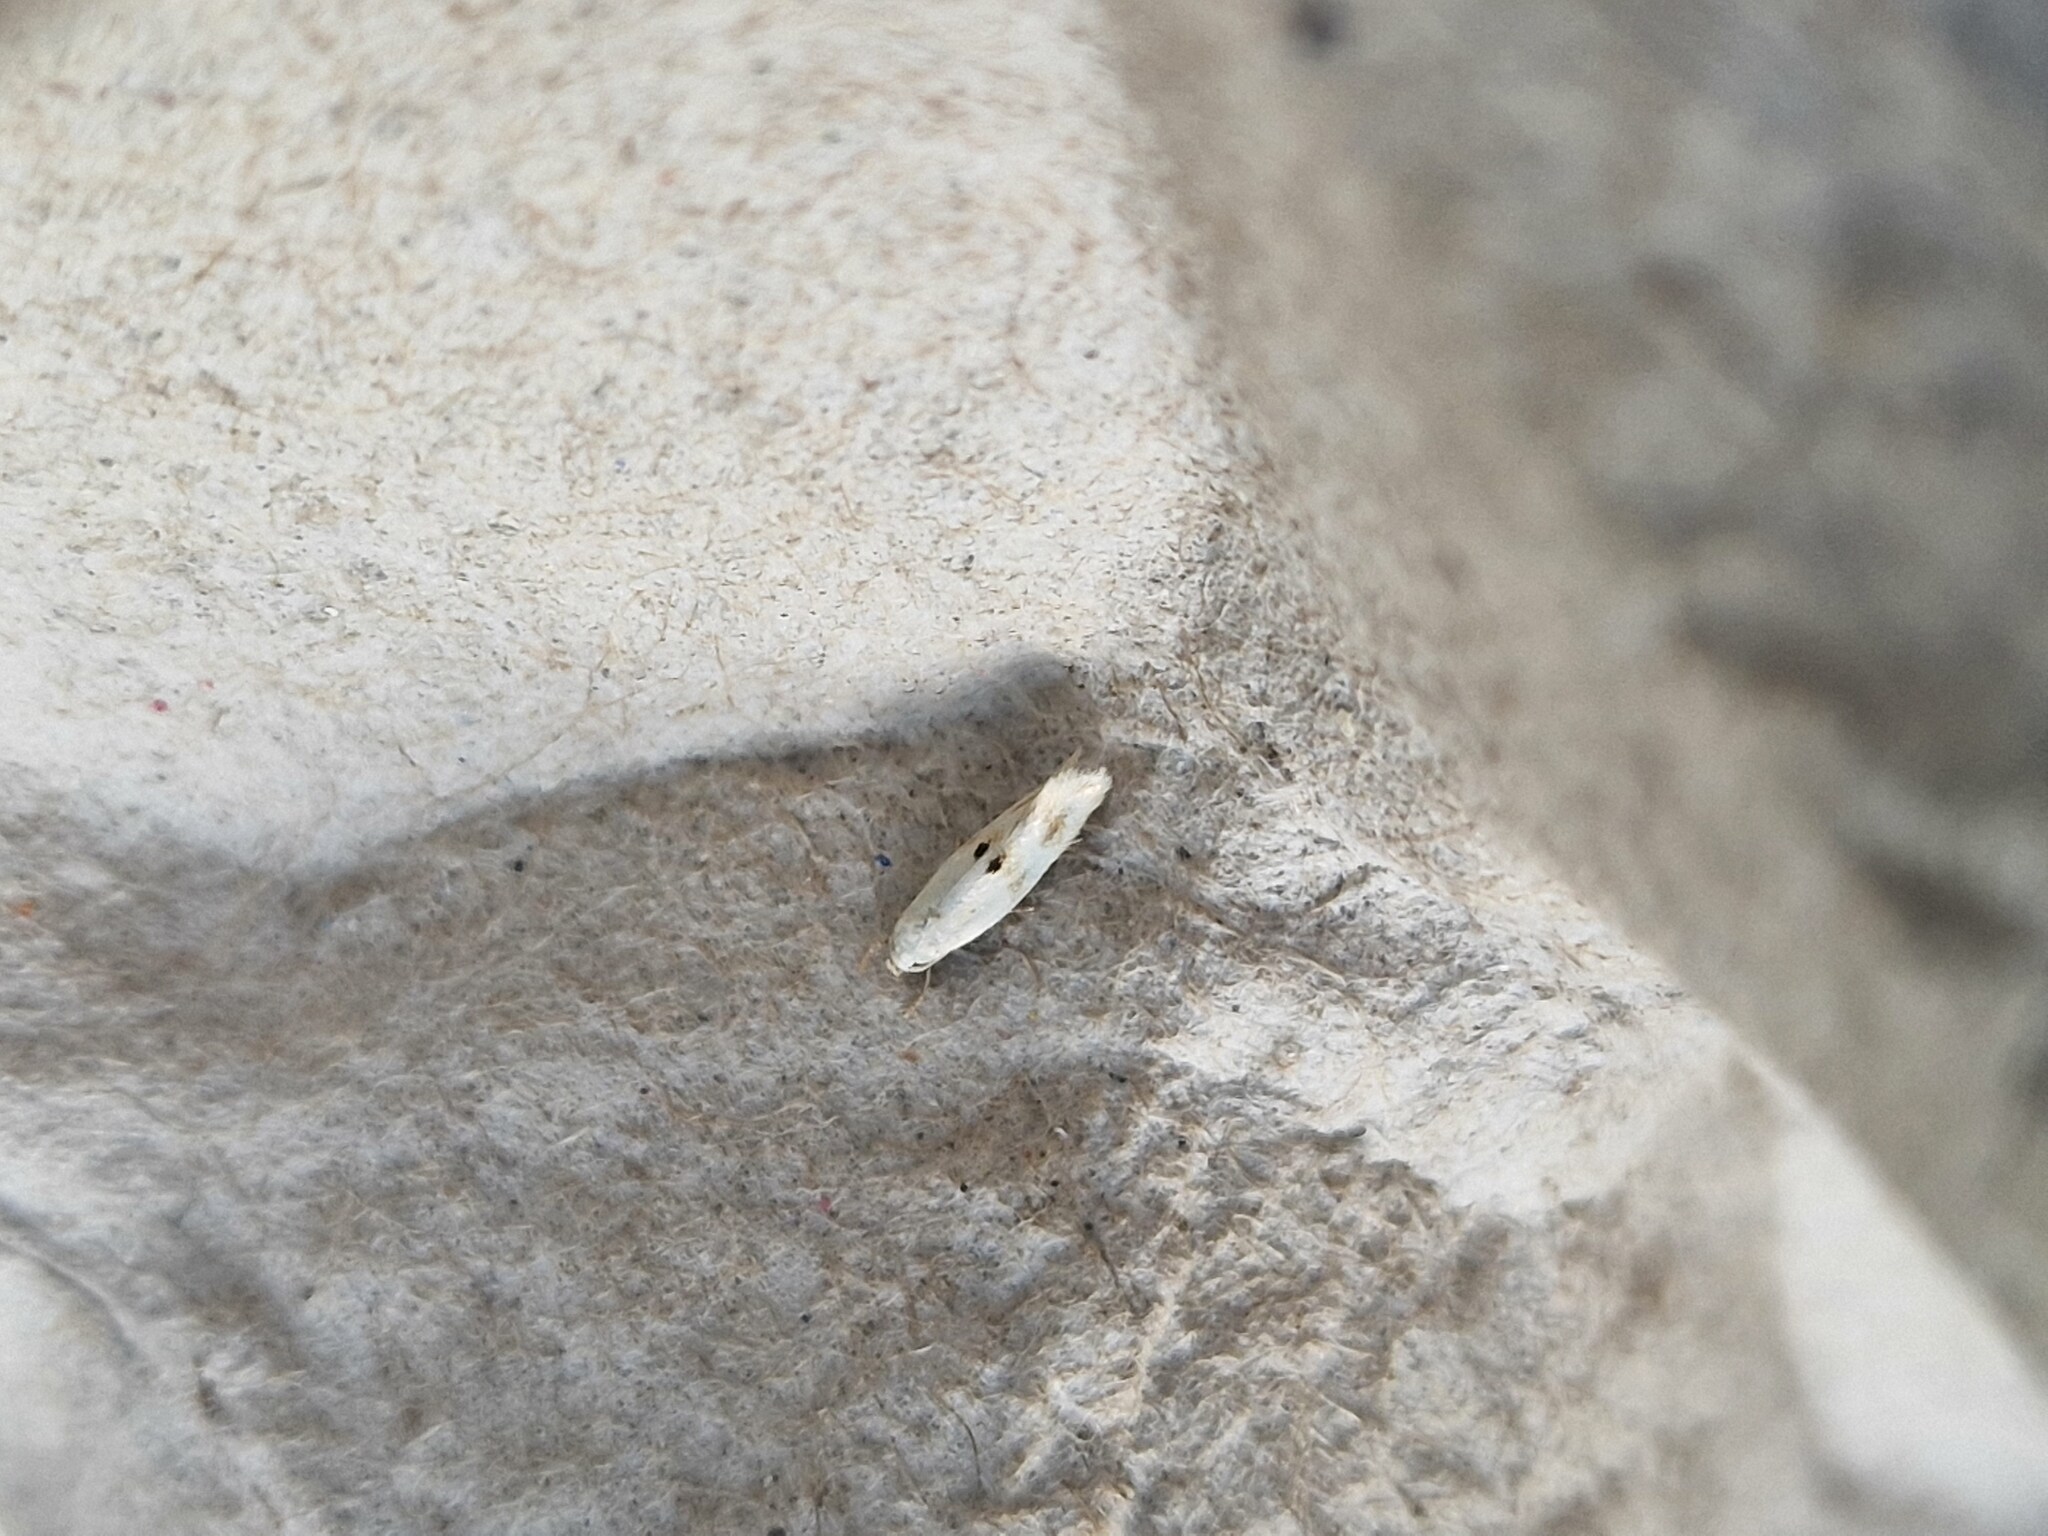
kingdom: Animalia
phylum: Arthropoda
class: Insecta
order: Lepidoptera
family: Elachistidae
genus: Elachista
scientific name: Elachista maculicerusella
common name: Triple-spot dwarf
